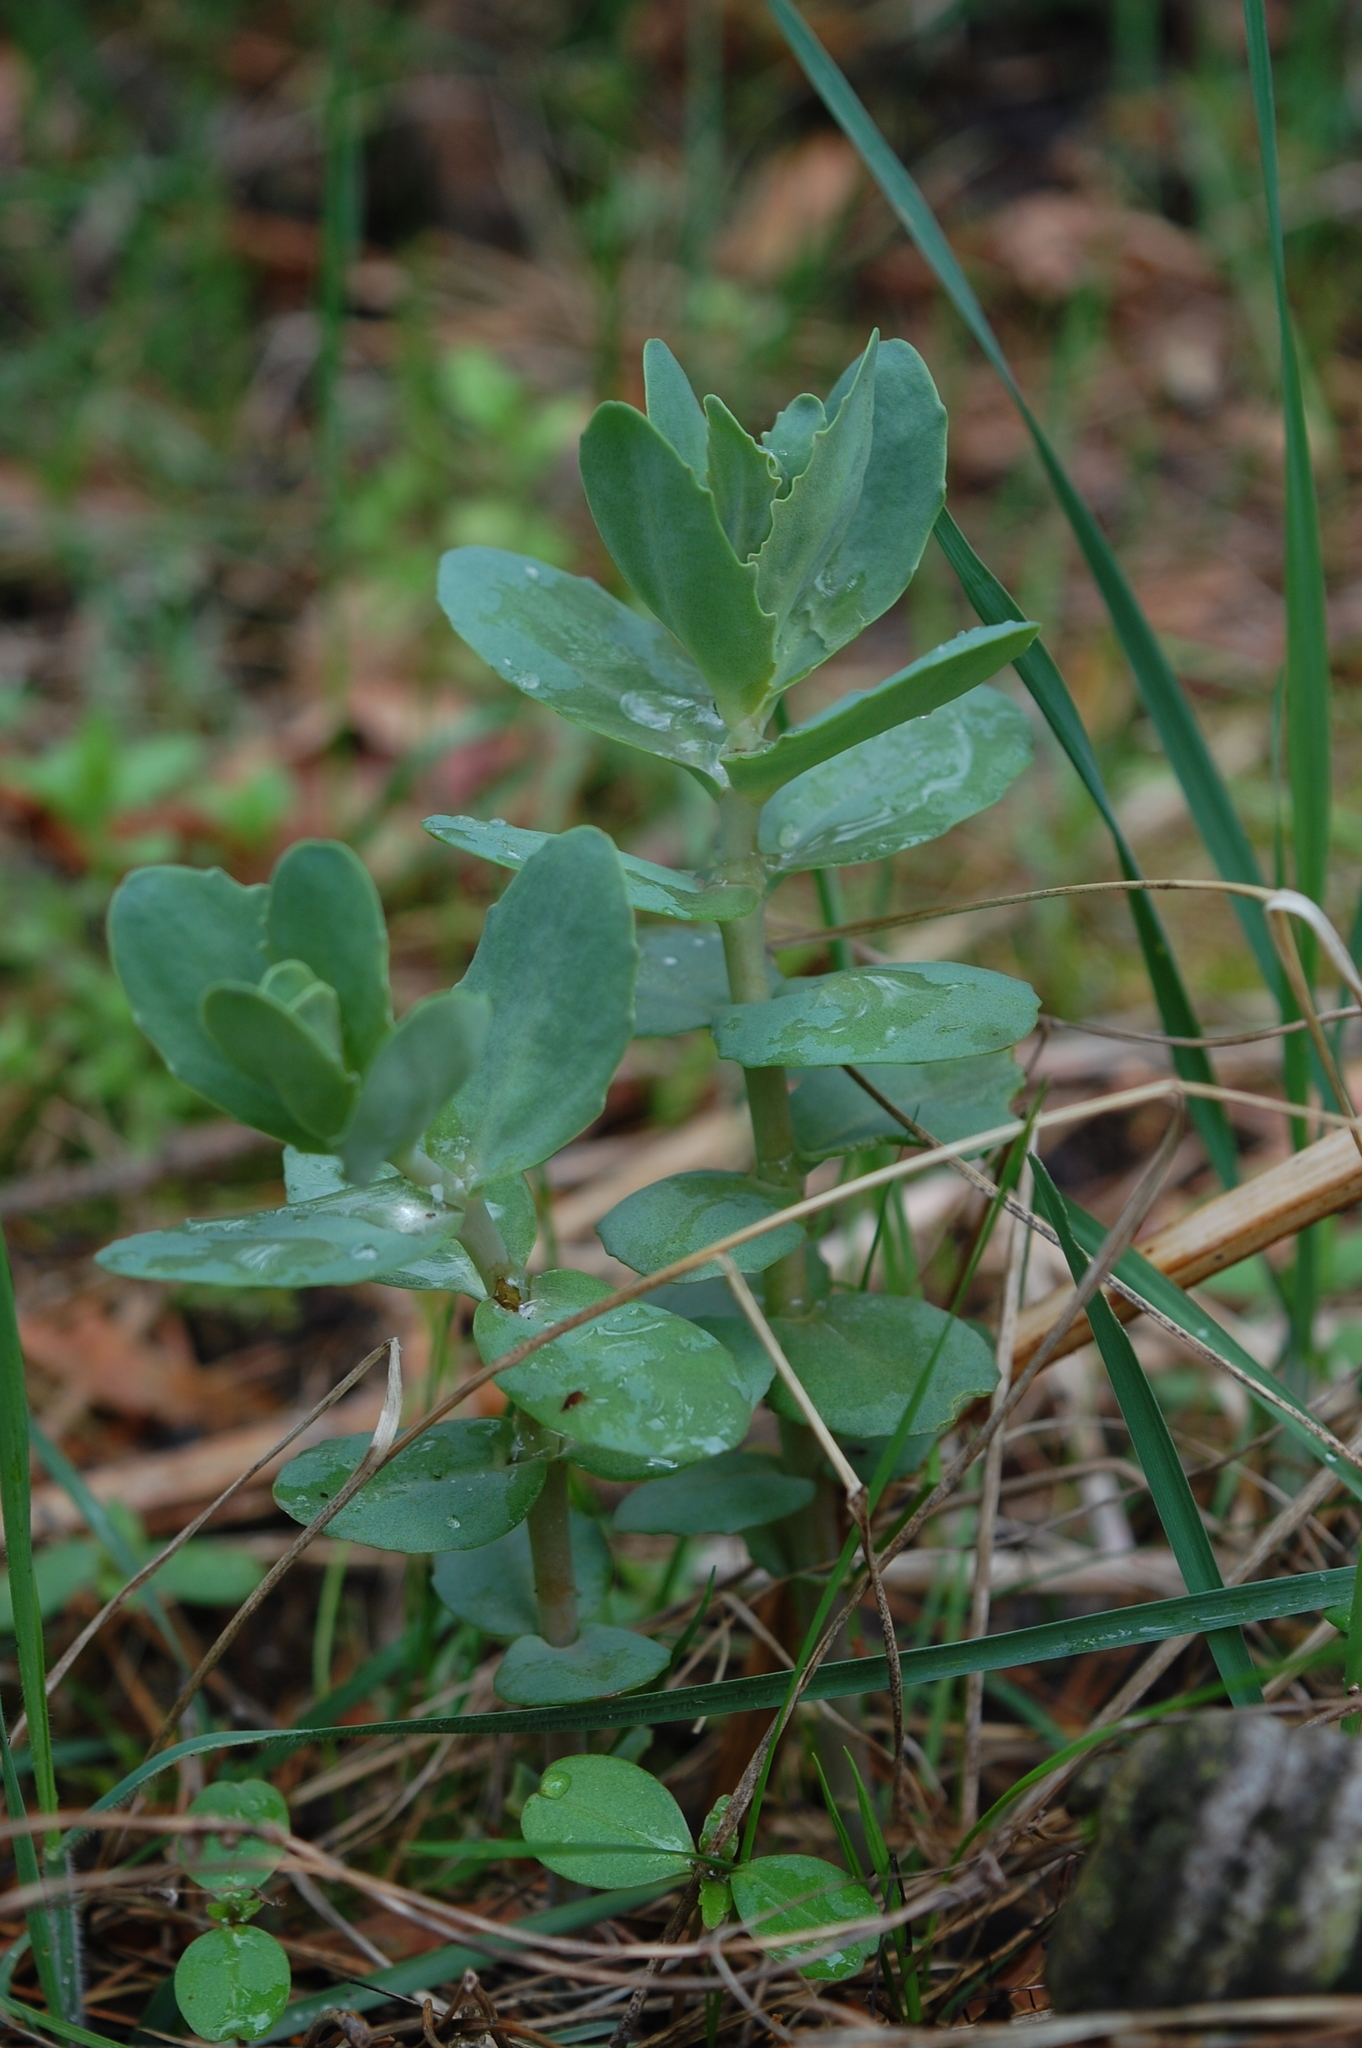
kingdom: Plantae
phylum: Tracheophyta
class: Magnoliopsida
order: Saxifragales
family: Crassulaceae
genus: Hylotelephium
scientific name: Hylotelephium maximum
